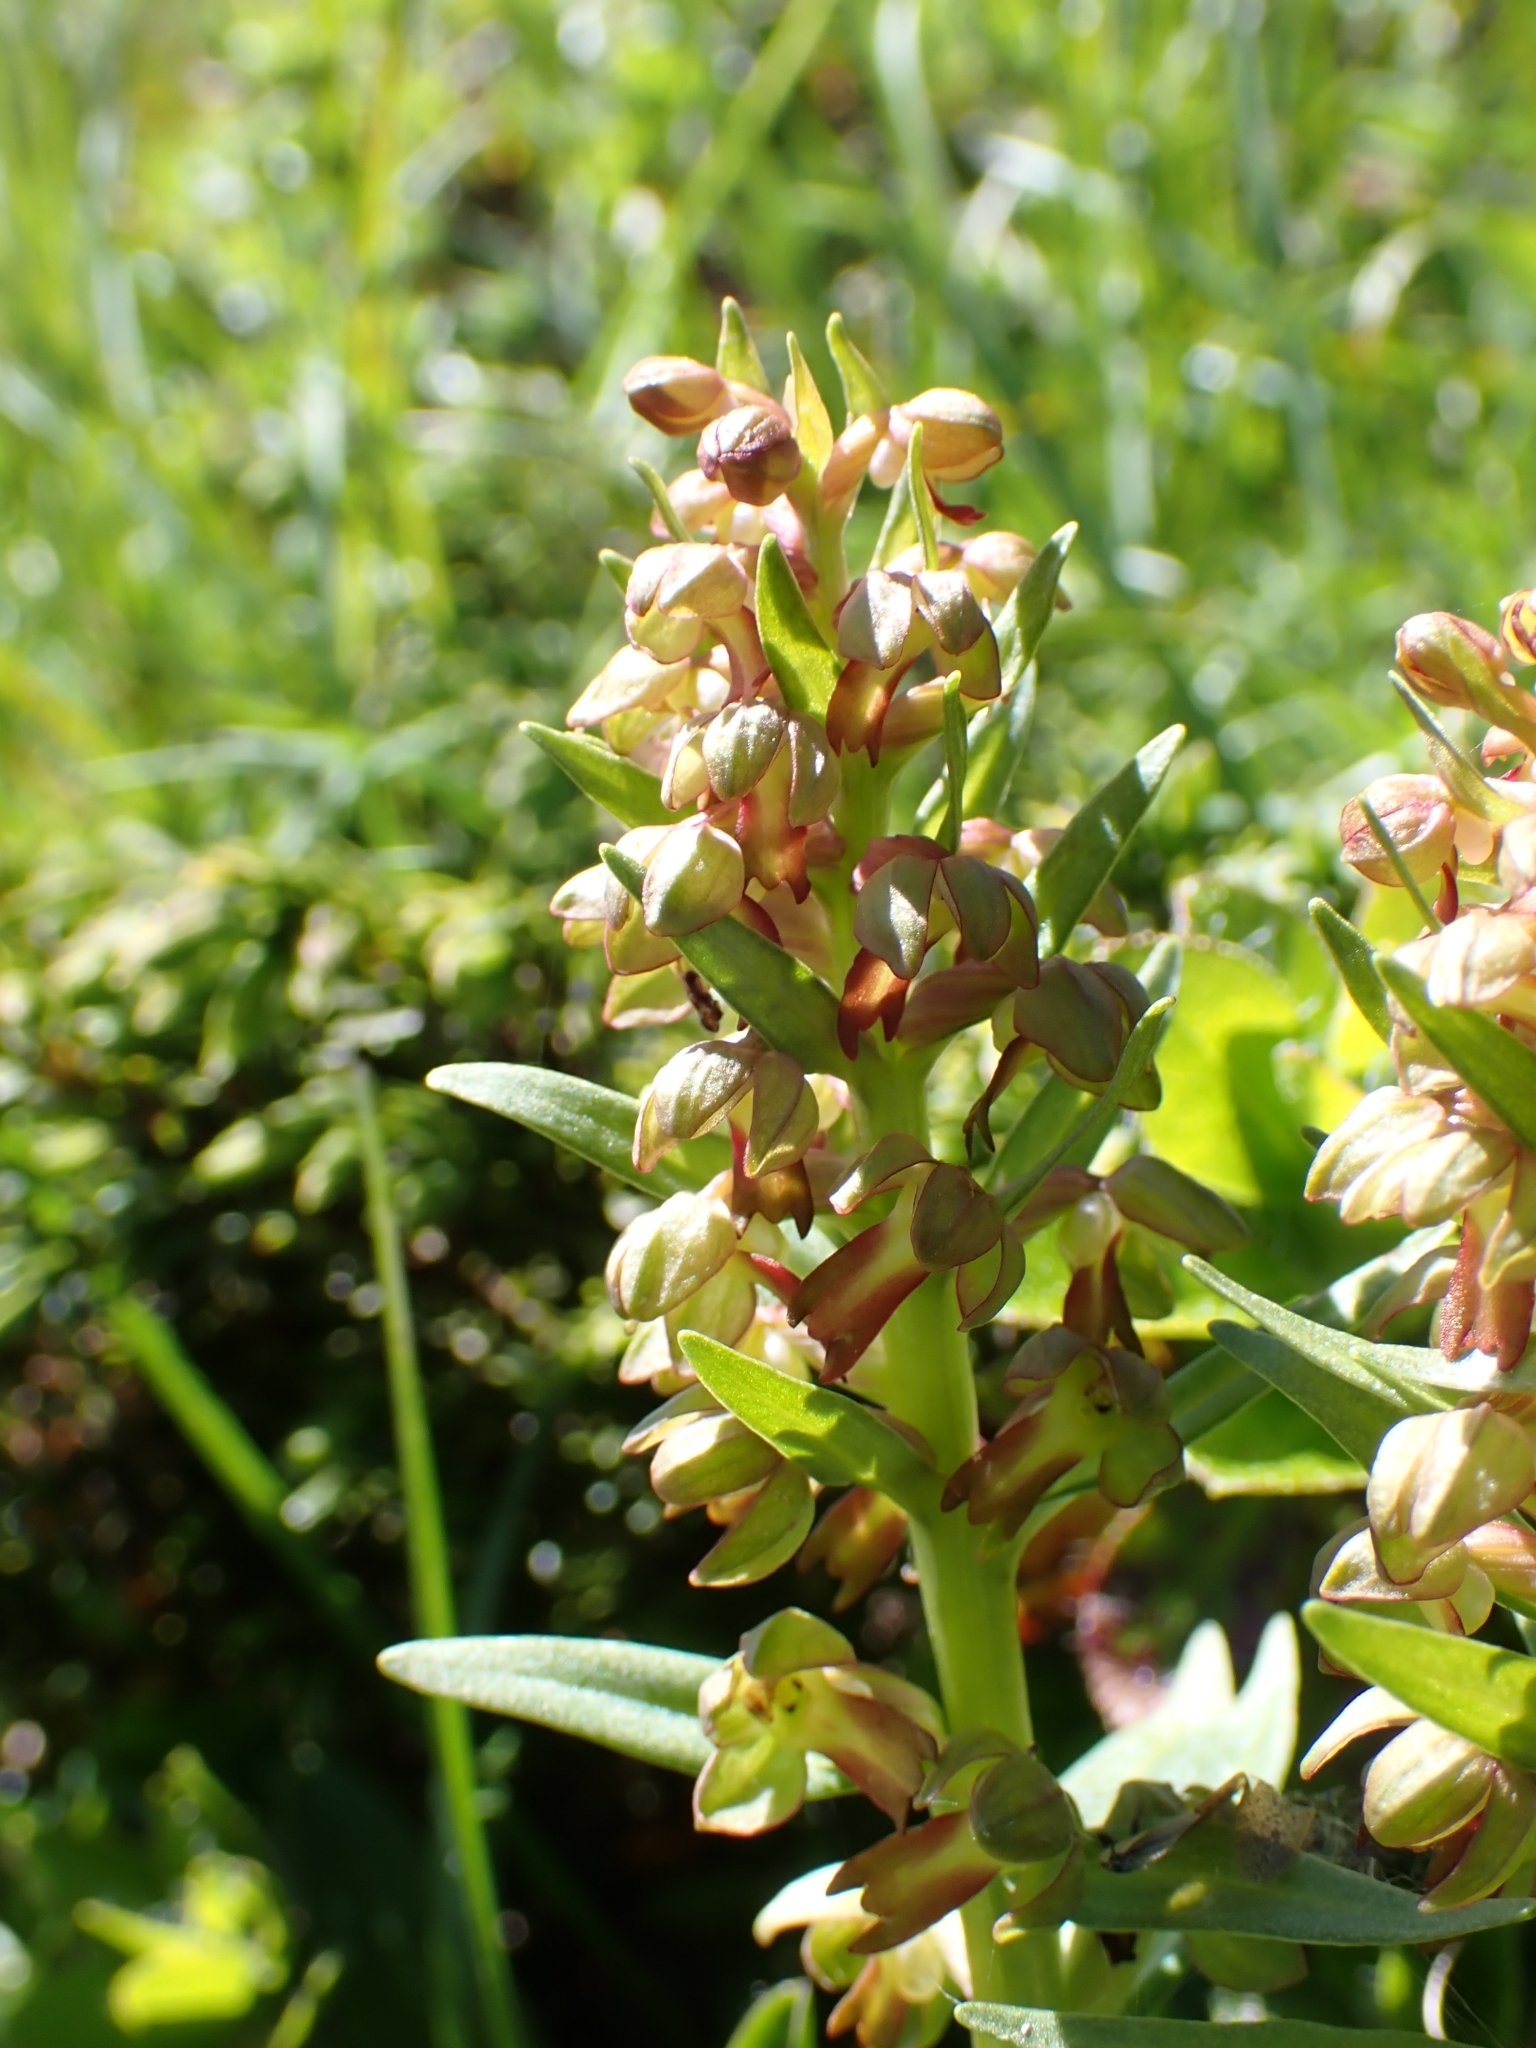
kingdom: Plantae
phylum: Tracheophyta
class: Liliopsida
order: Asparagales
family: Orchidaceae
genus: Dactylorhiza
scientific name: Dactylorhiza viridis
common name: Longbract frog orchid
